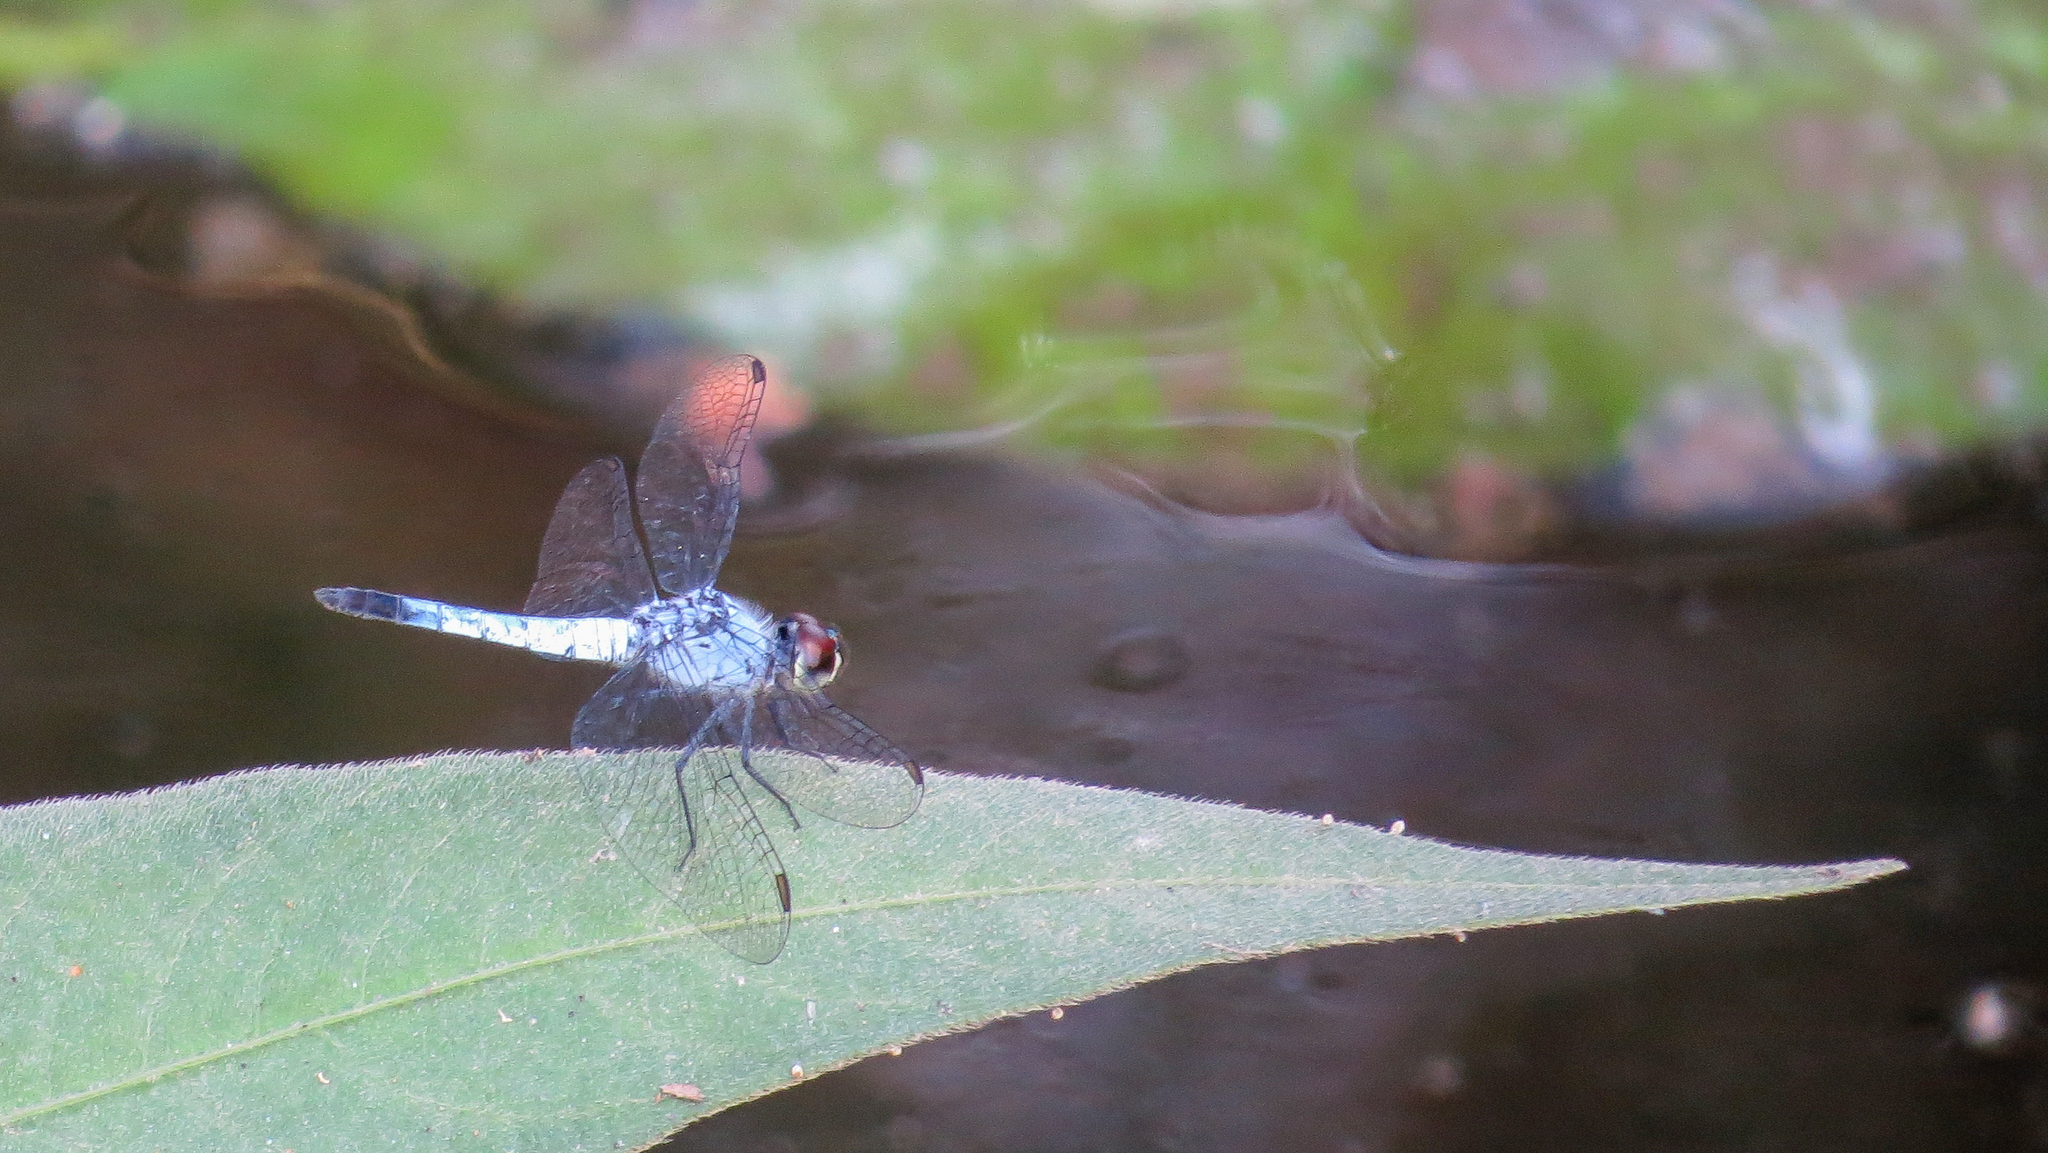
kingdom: Animalia
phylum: Arthropoda
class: Insecta
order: Odonata
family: Libellulidae
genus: Brachydiplax
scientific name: Brachydiplax denticauda
